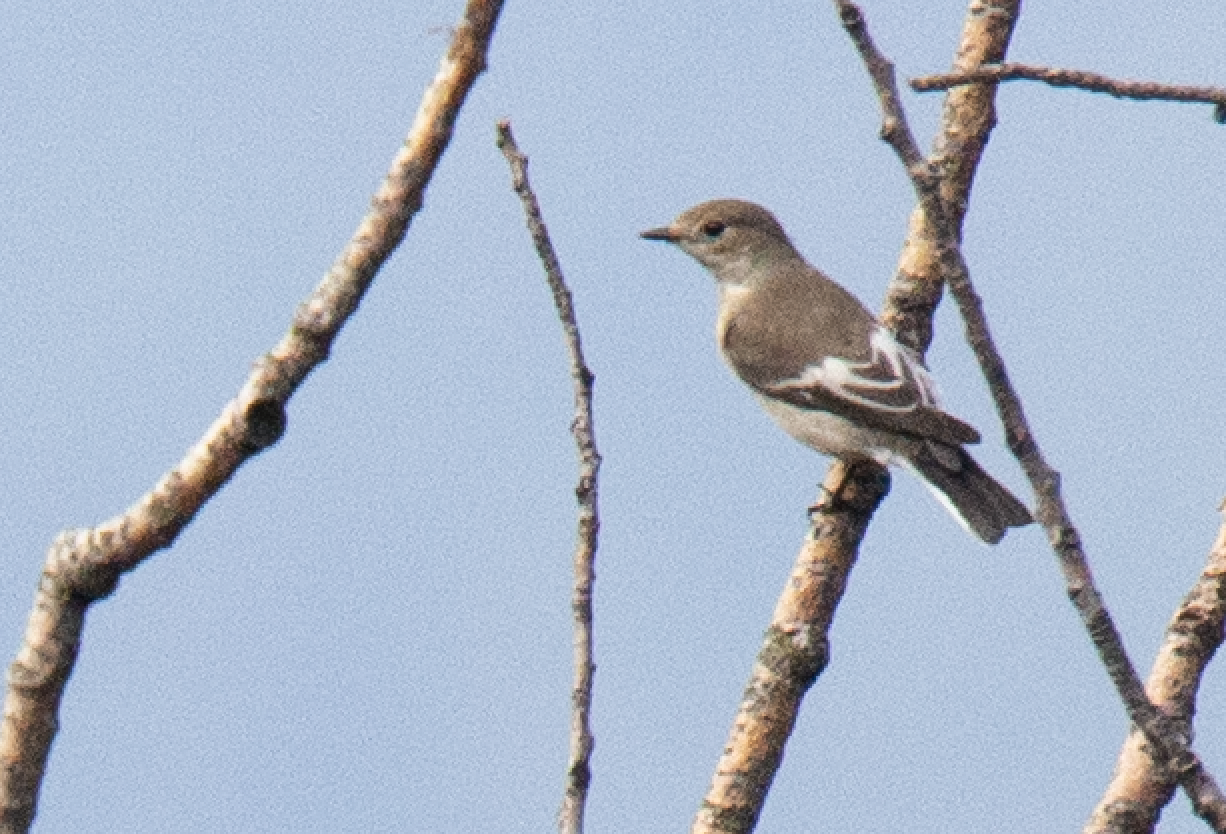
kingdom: Animalia
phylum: Chordata
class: Aves
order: Passeriformes
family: Muscicapidae
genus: Ficedula
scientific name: Ficedula hypoleuca
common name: European pied flycatcher
